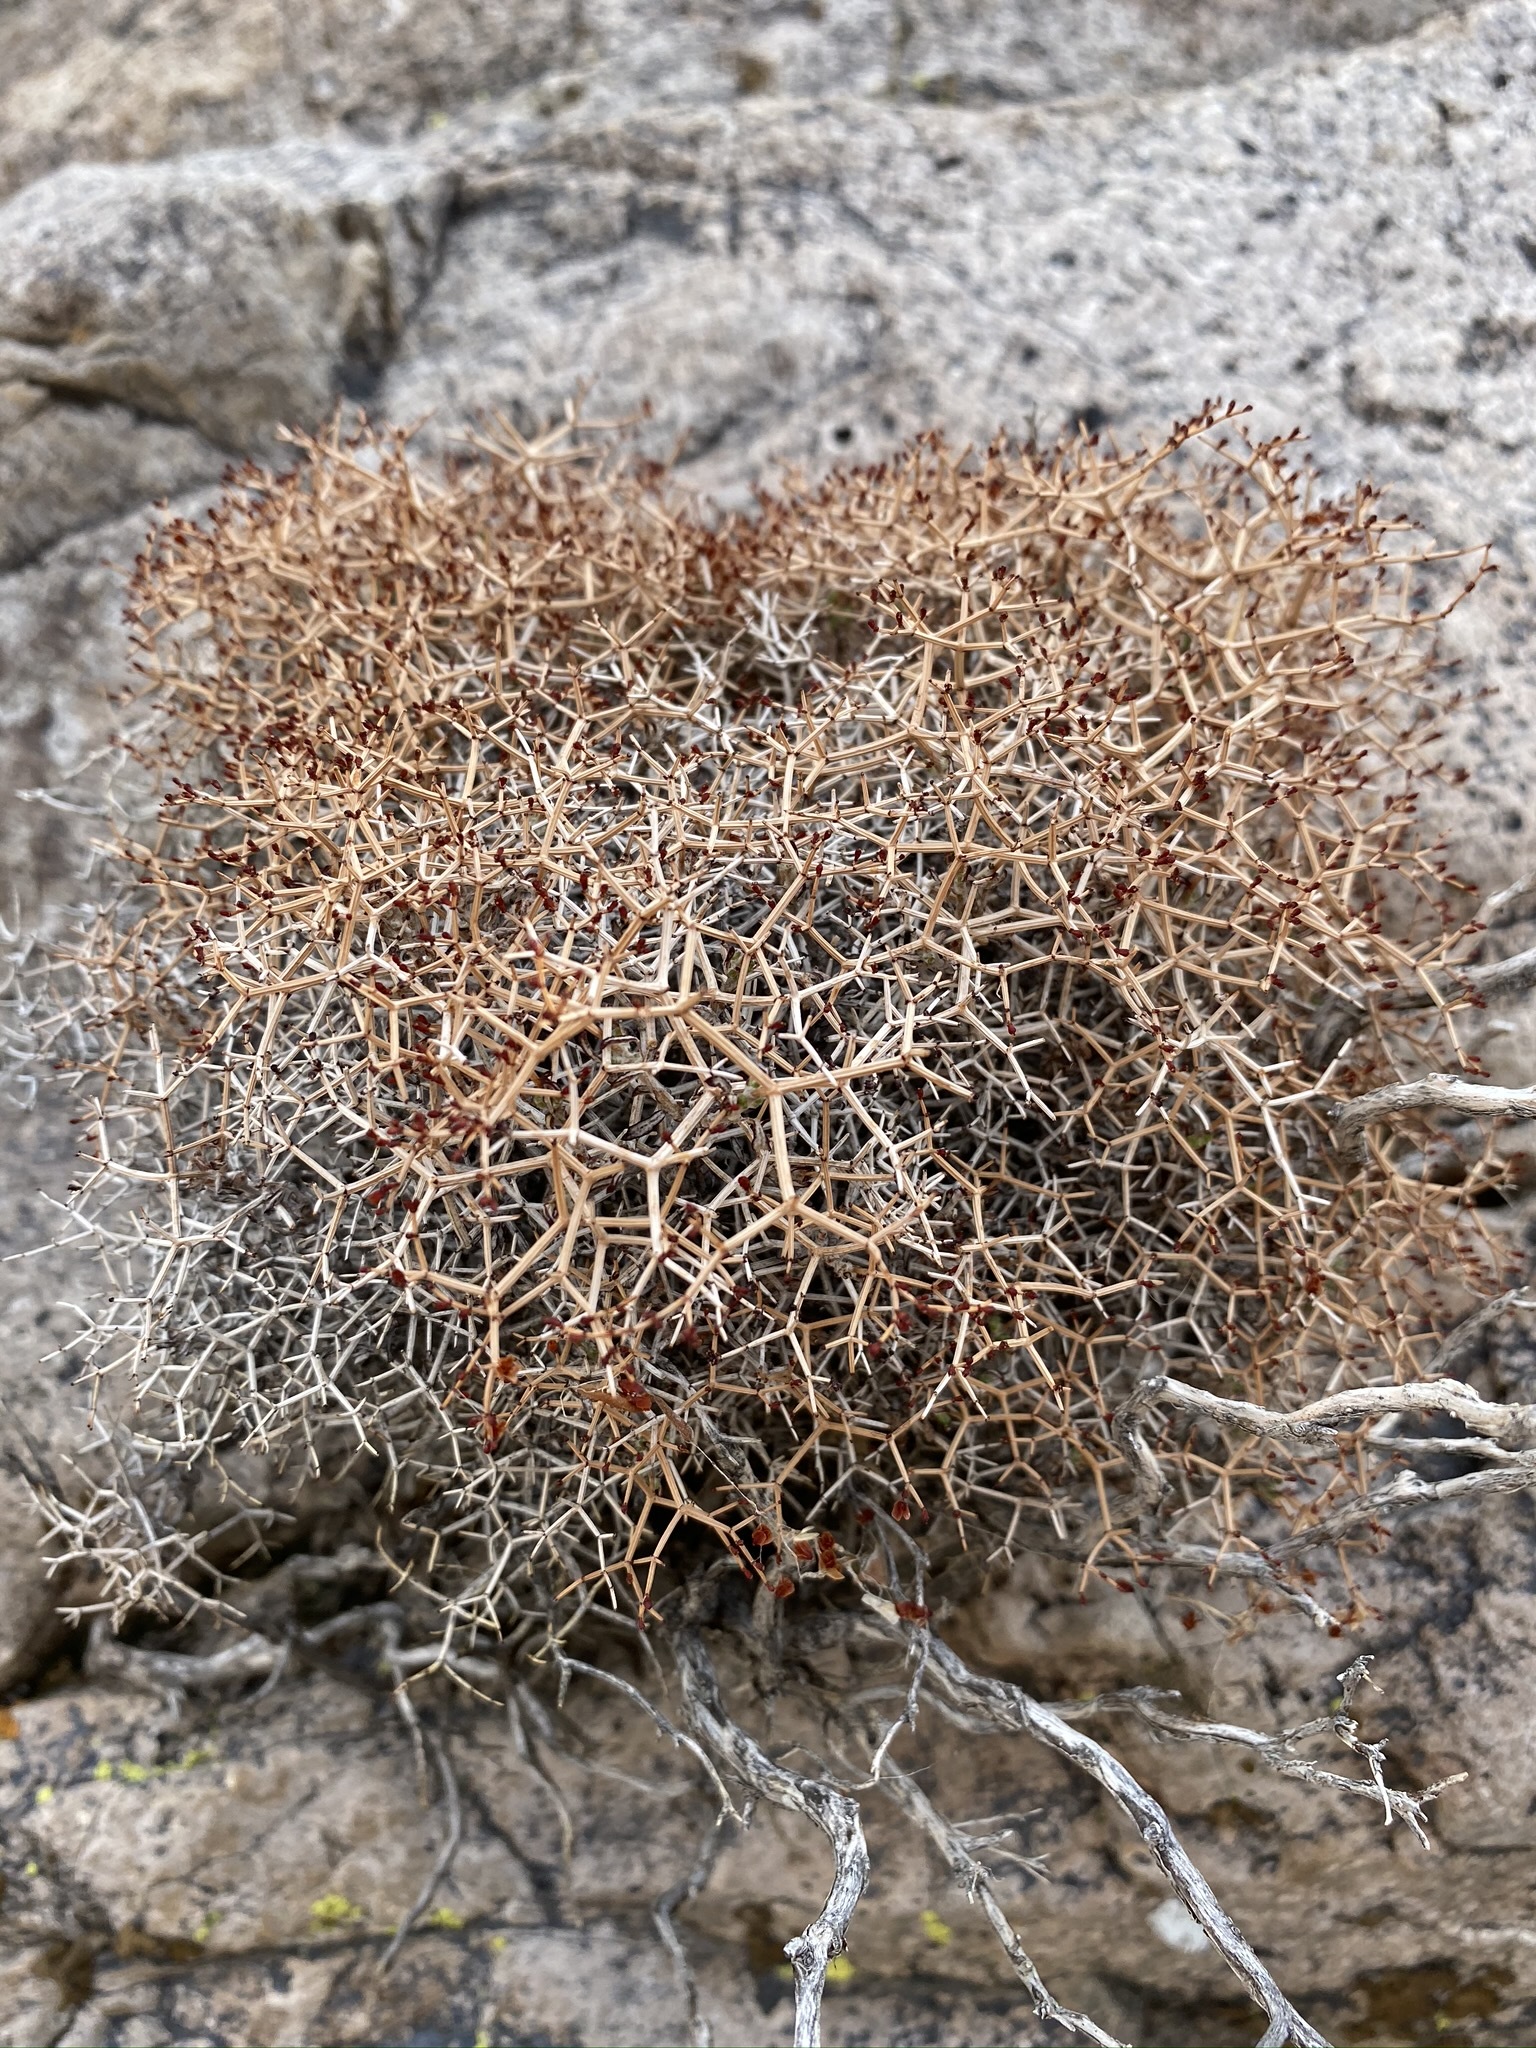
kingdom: Plantae
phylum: Tracheophyta
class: Magnoliopsida
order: Caryophyllales
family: Polygonaceae
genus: Eriogonum
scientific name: Eriogonum heermannii
